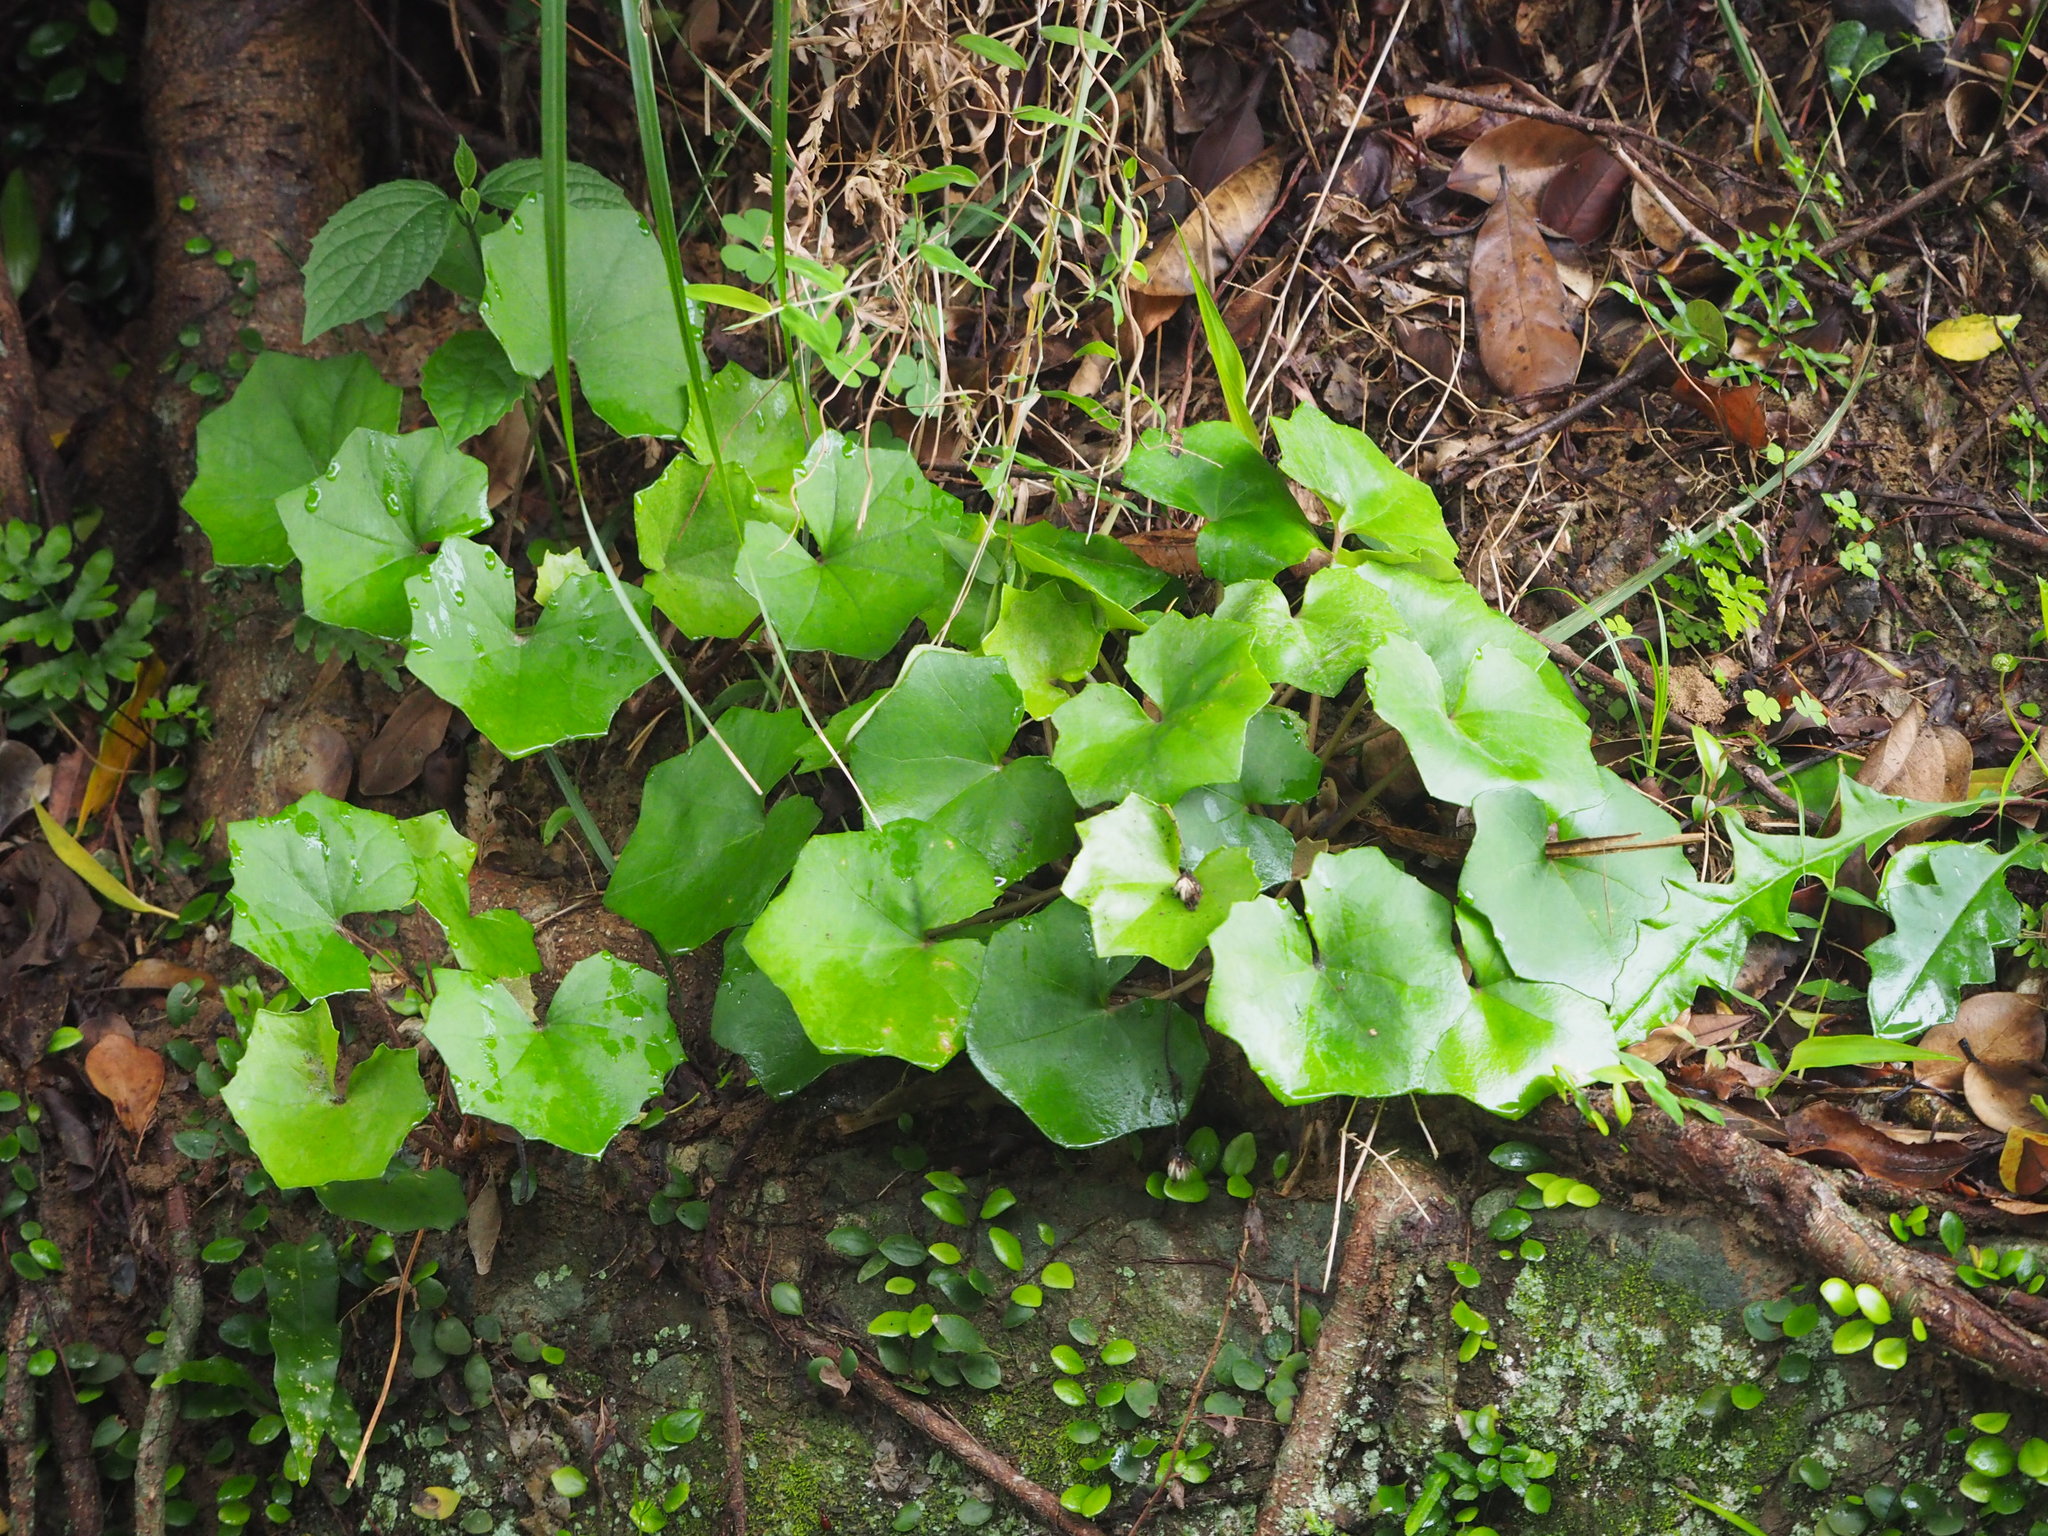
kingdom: Plantae
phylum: Tracheophyta
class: Magnoliopsida
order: Asterales
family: Asteraceae
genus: Farfugium
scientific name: Farfugium japonicum
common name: Leopardplant
